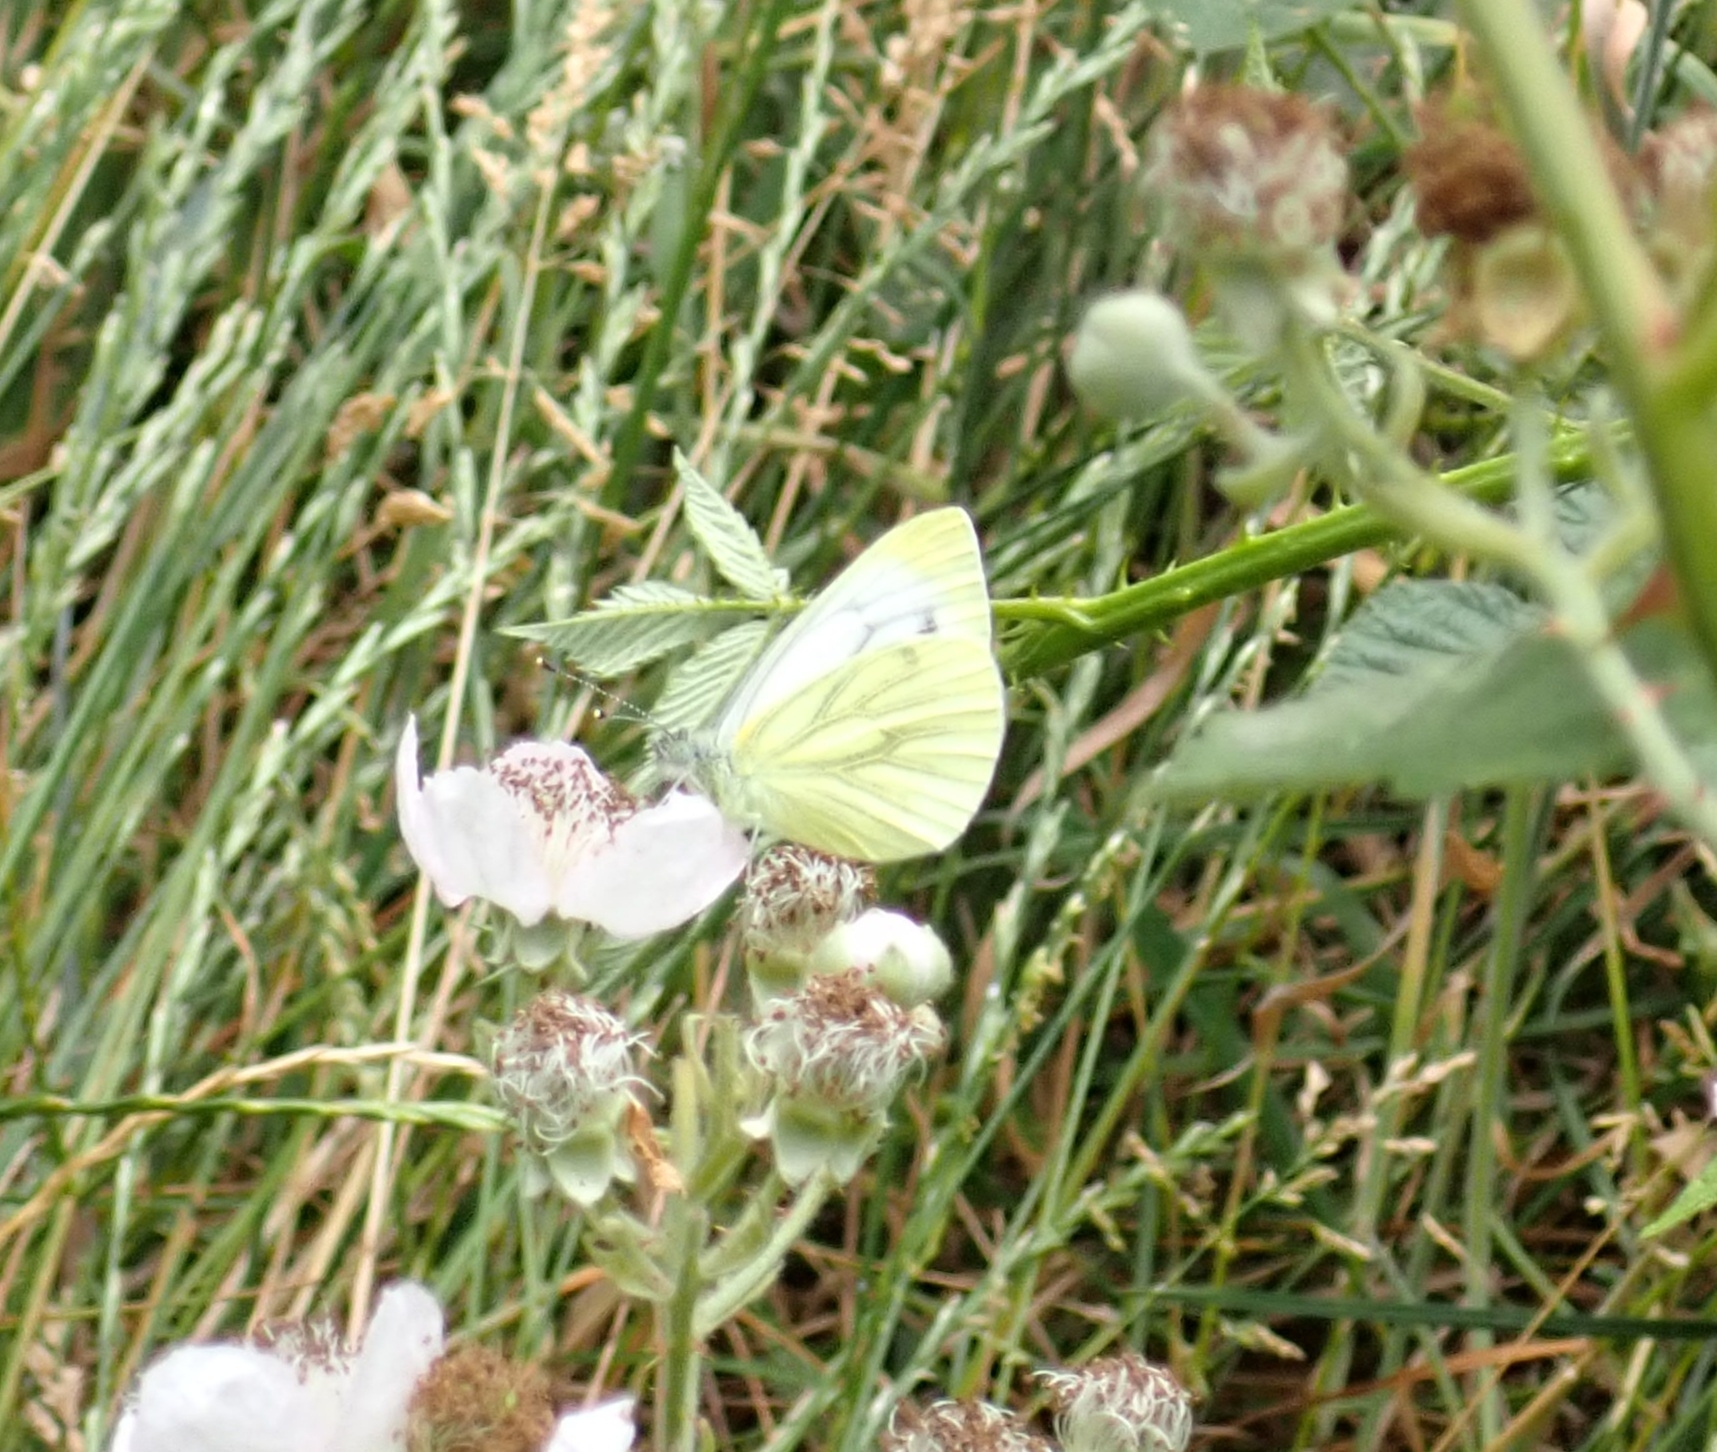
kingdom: Animalia
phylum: Arthropoda
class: Insecta
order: Lepidoptera
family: Pieridae
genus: Pieris
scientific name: Pieris napi
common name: Green-veined white
